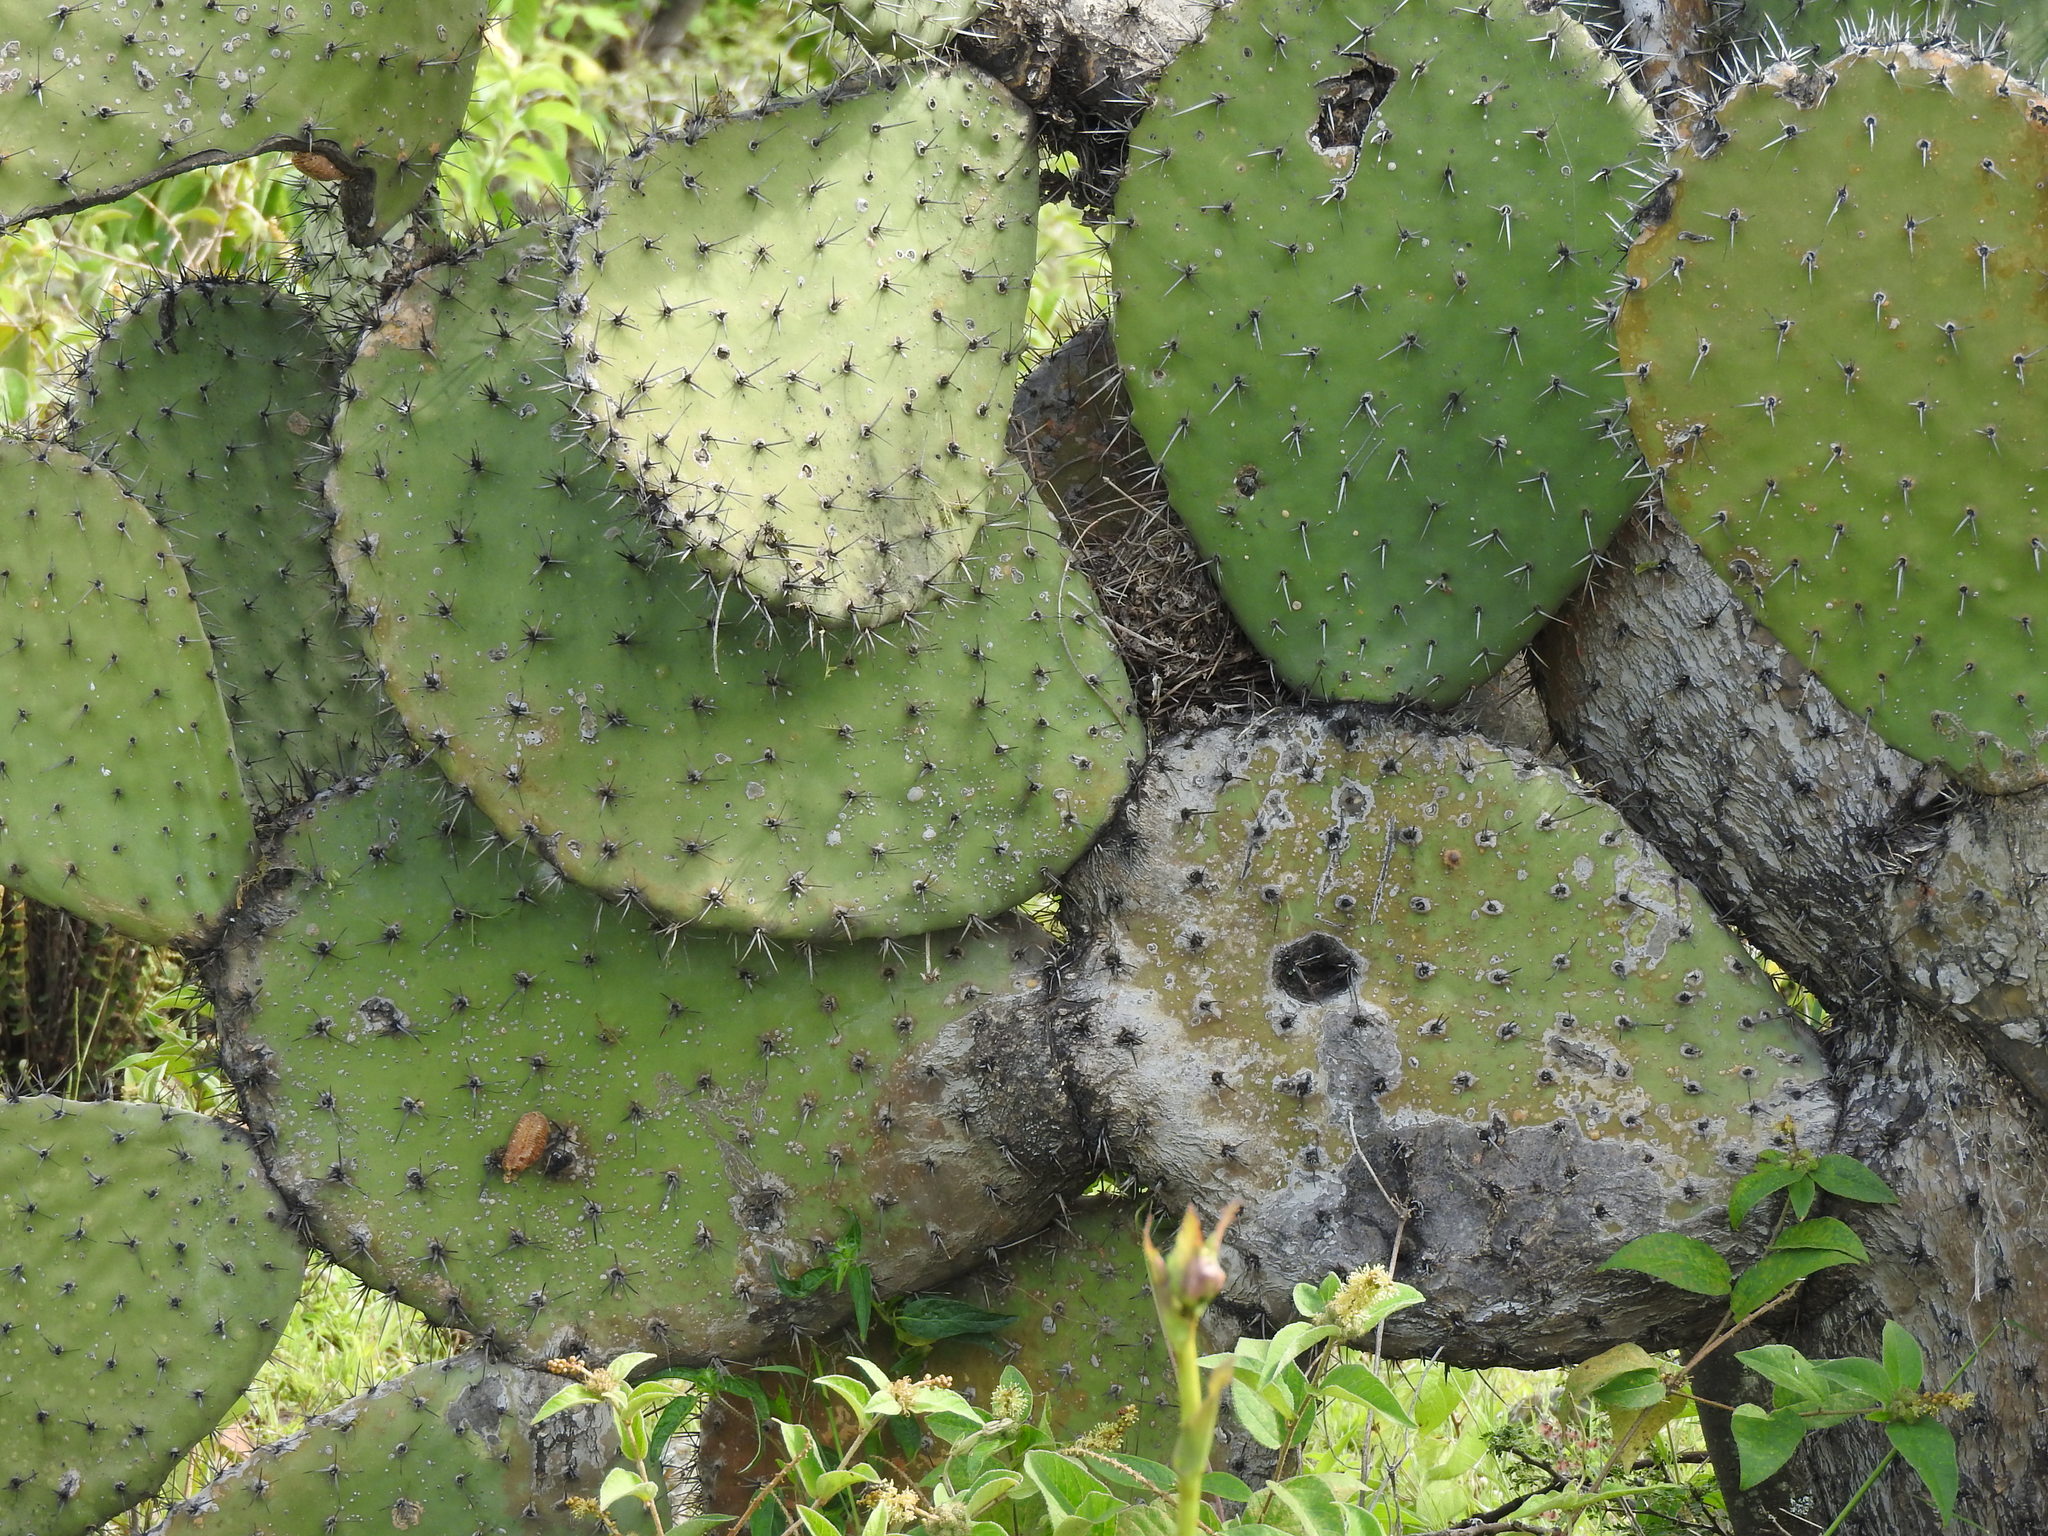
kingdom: Plantae
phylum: Tracheophyta
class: Magnoliopsida
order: Caryophyllales
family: Cactaceae
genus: Opuntia
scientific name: Opuntia streptacantha
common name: Gracemere-pear
